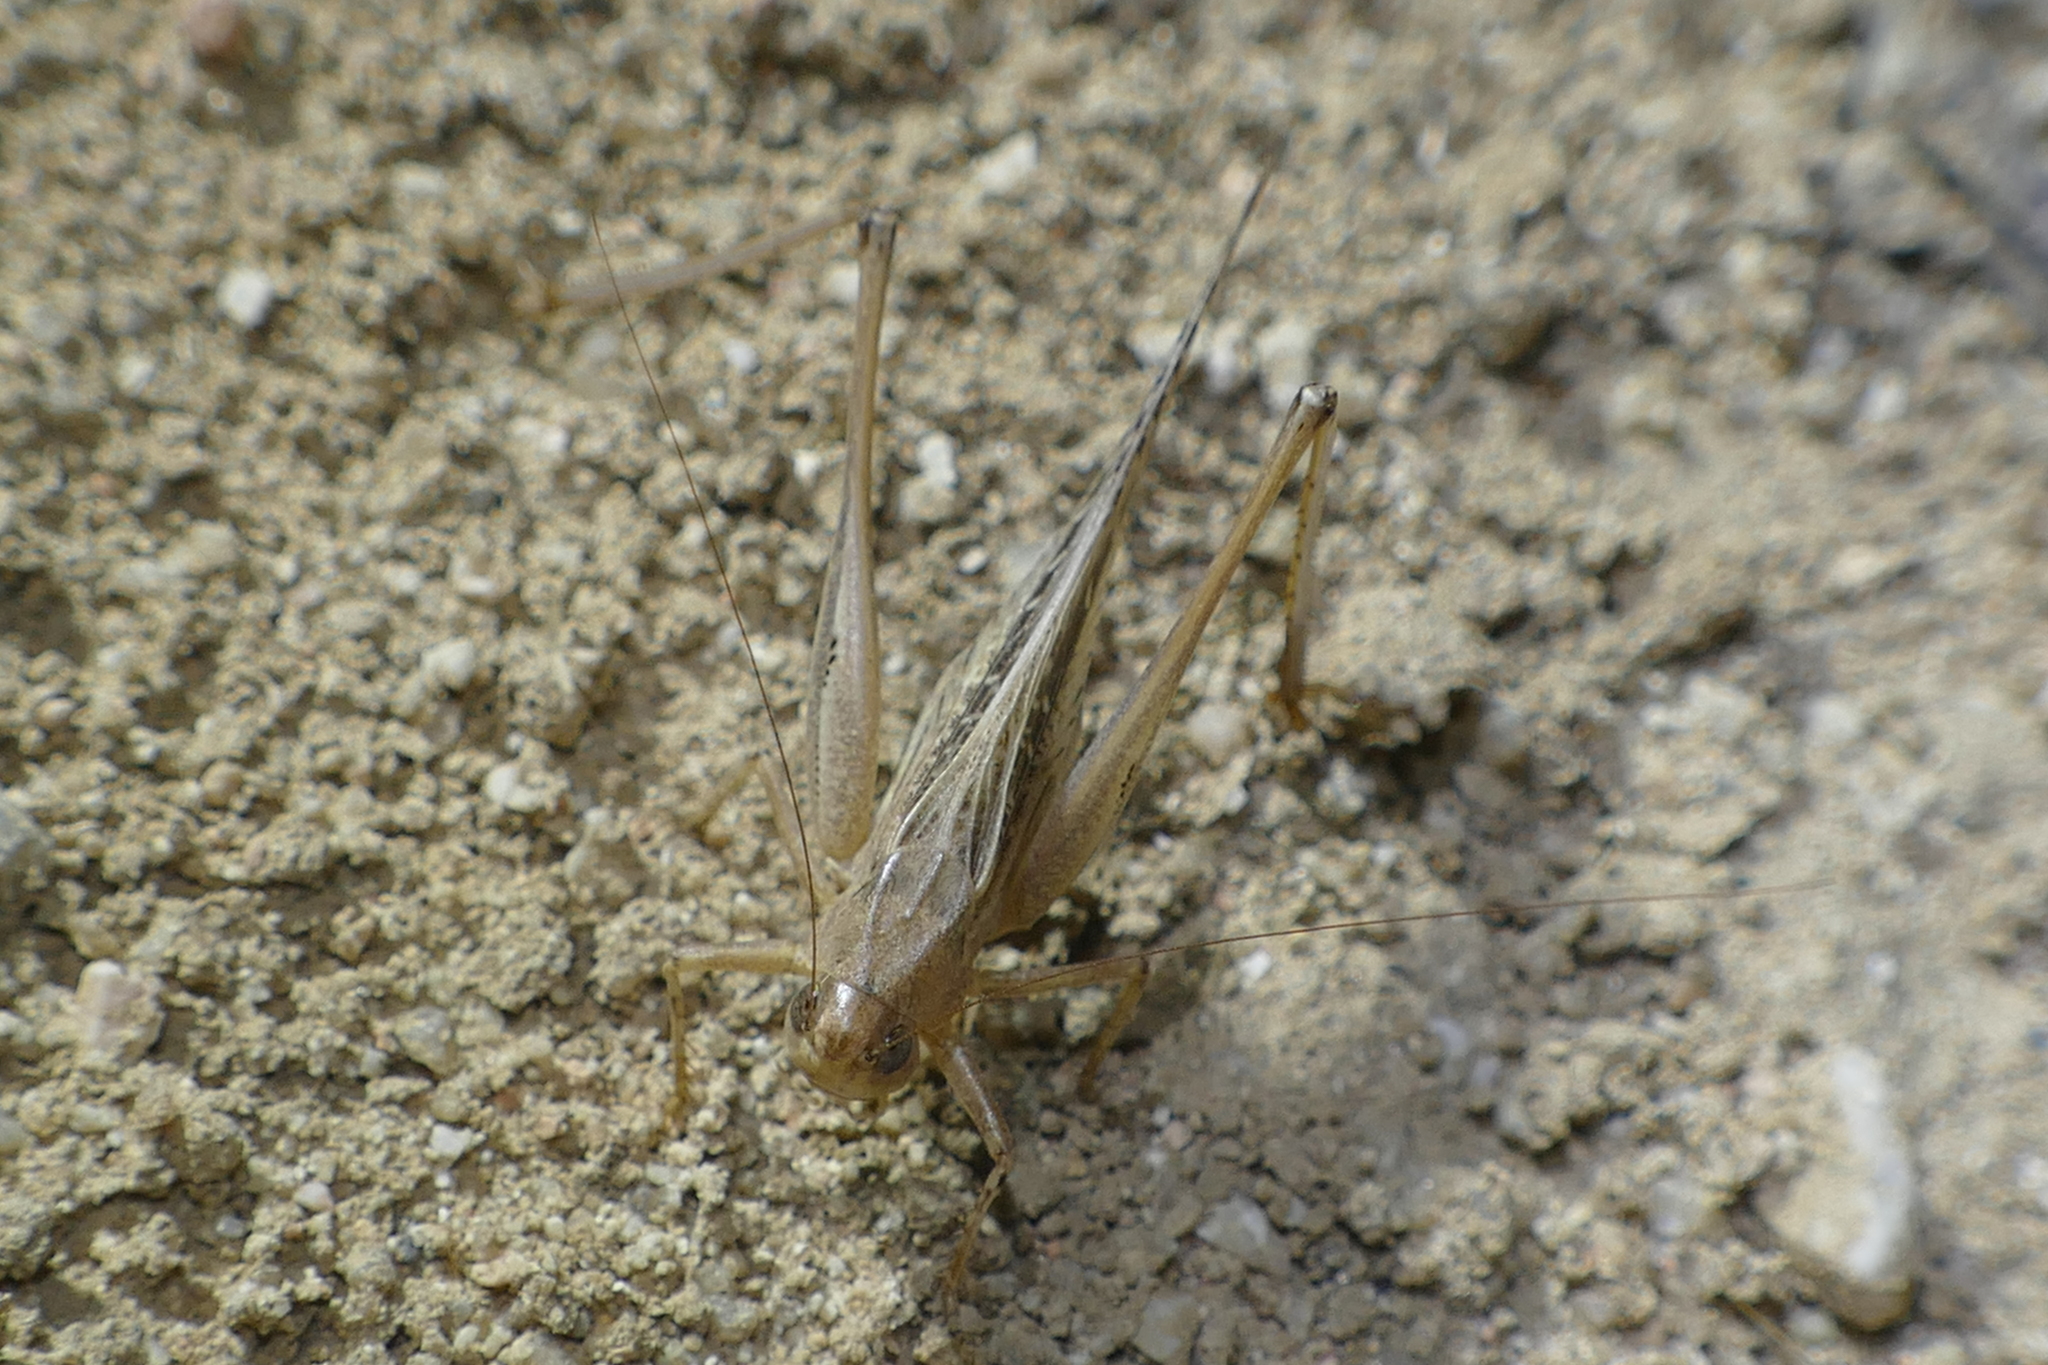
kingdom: Animalia
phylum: Arthropoda
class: Insecta
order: Orthoptera
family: Tettigoniidae
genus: Tessellana
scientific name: Tessellana tessellata
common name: Grasshopper
